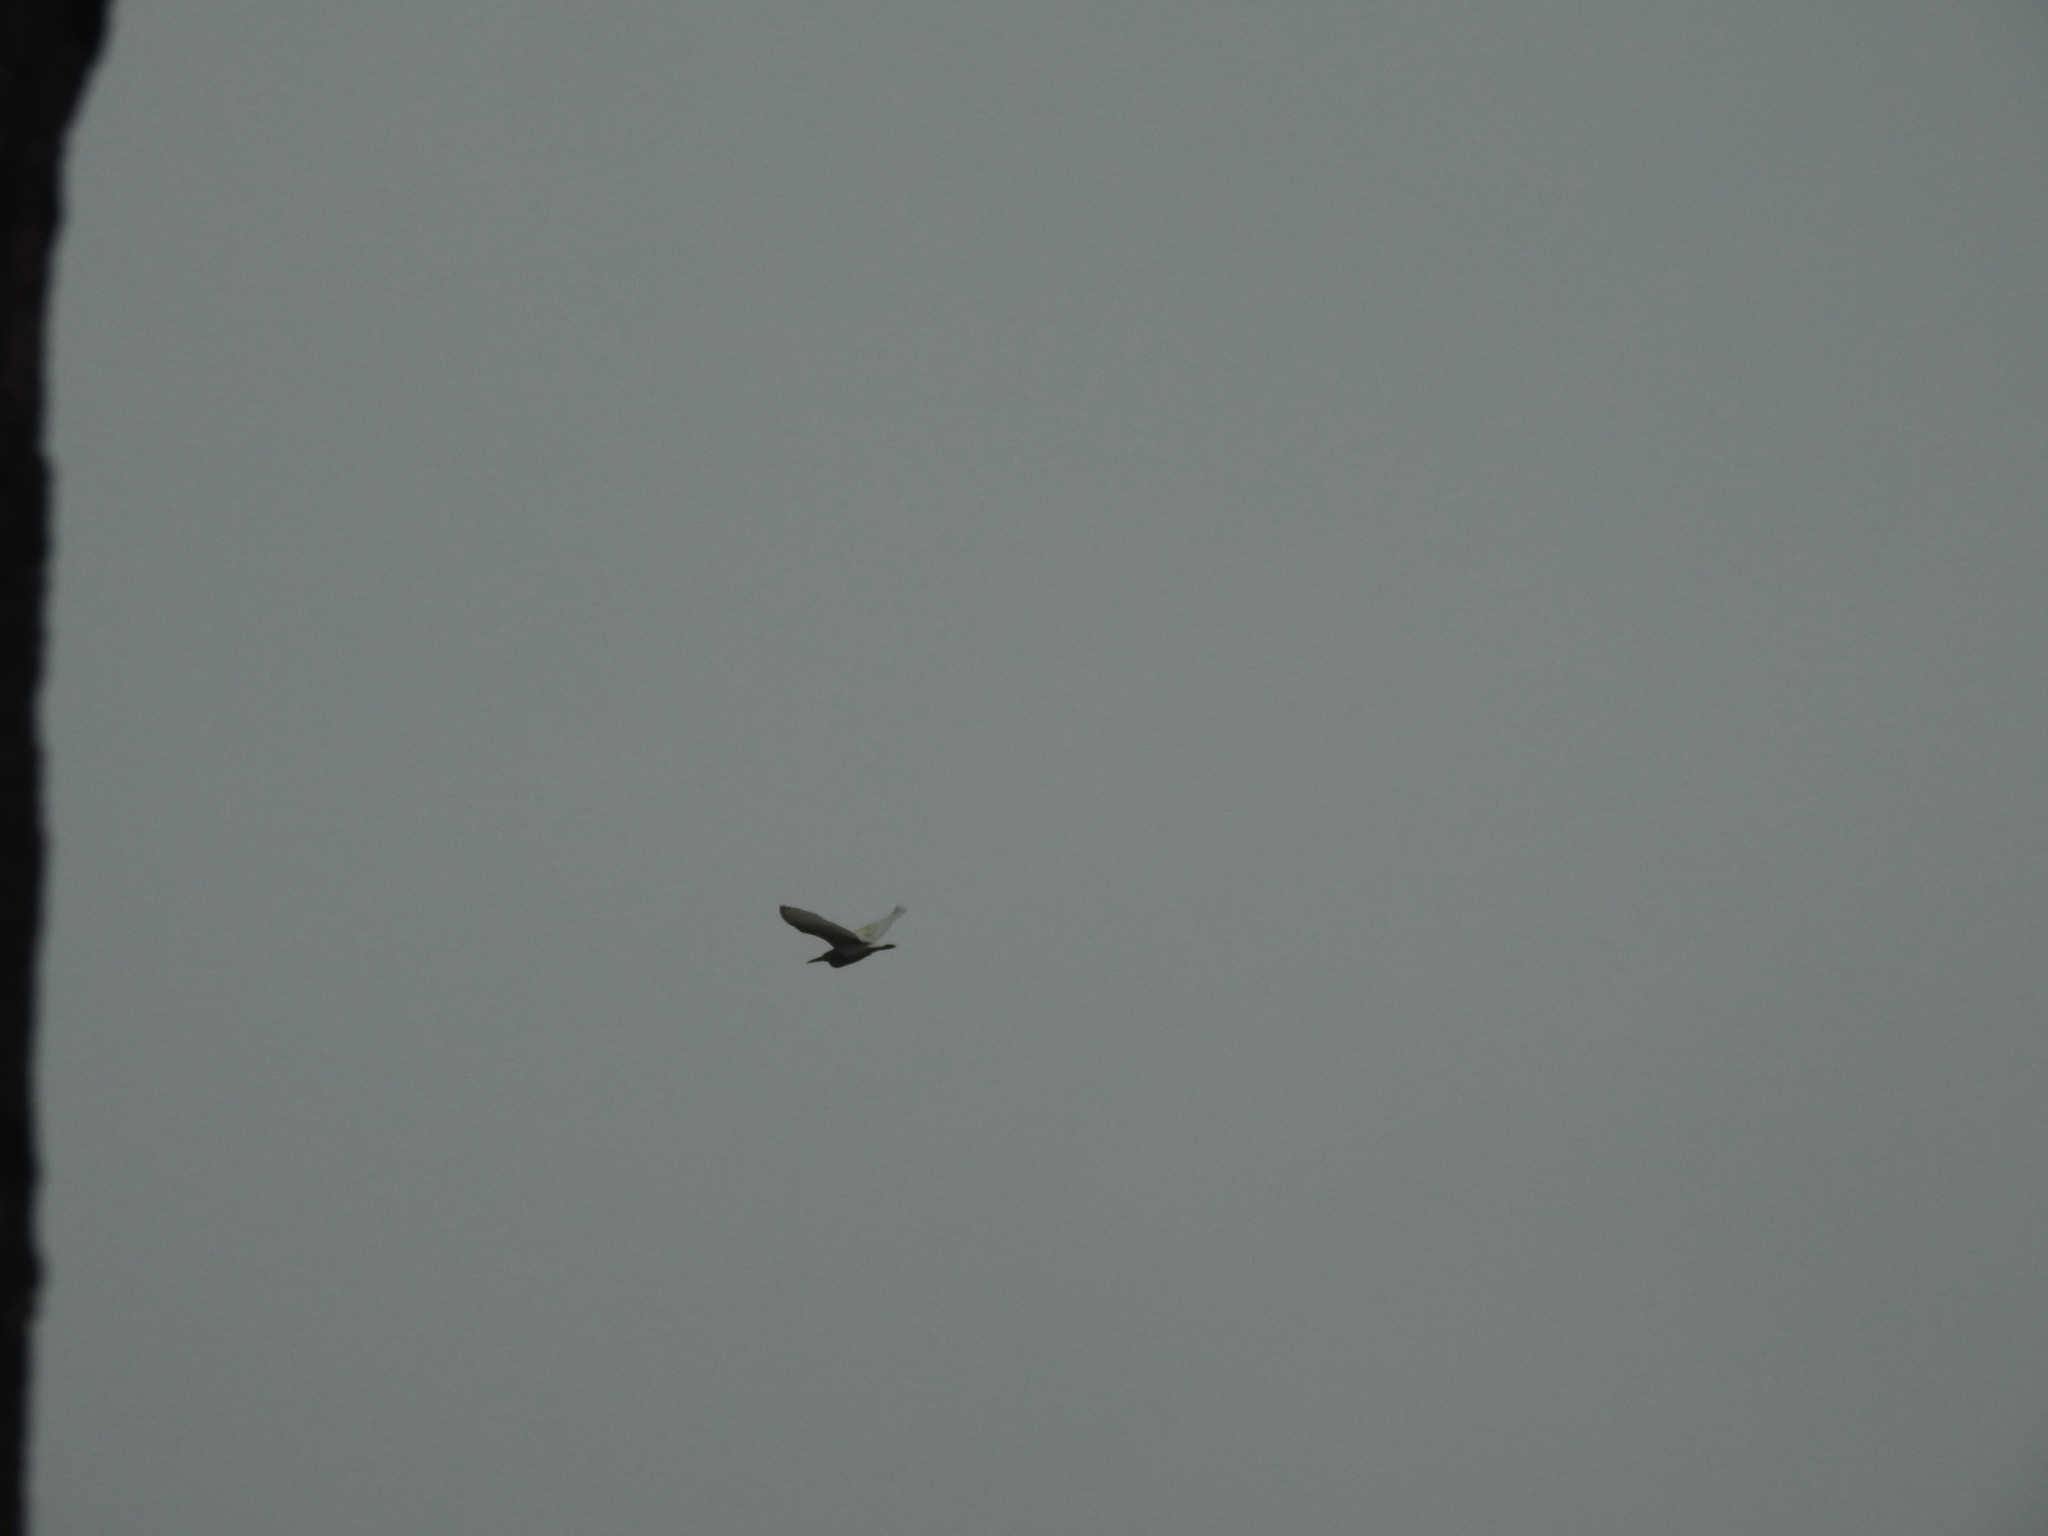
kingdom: Animalia
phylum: Chordata
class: Aves
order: Pelecaniformes
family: Ardeidae
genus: Ardeola
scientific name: Ardeola grayii
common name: Indian pond heron
